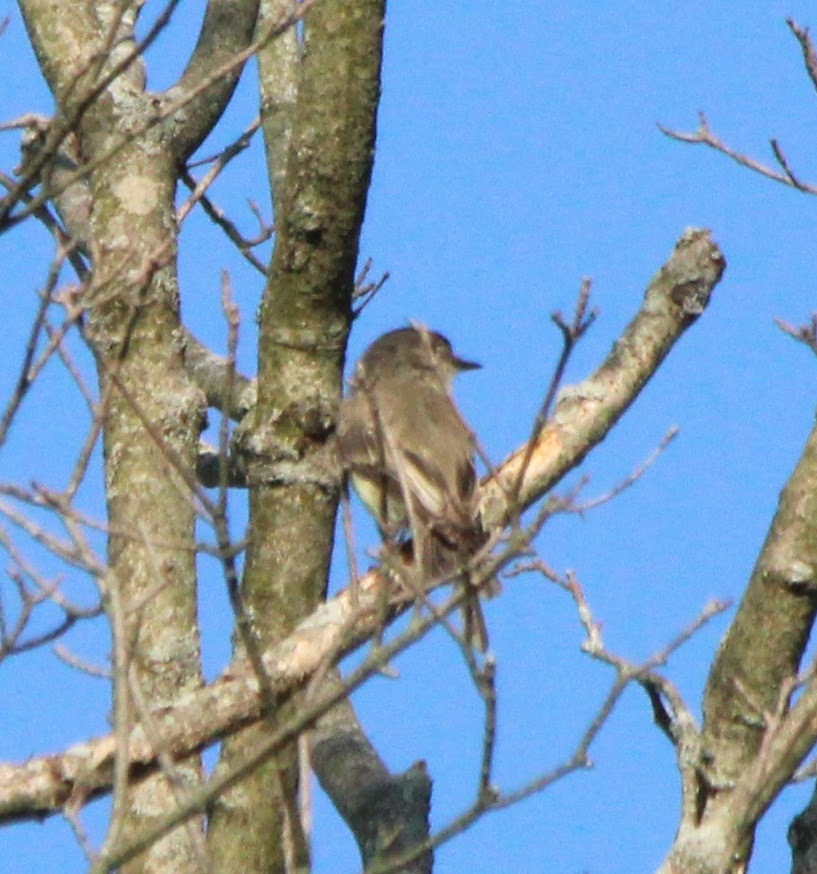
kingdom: Animalia
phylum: Chordata
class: Aves
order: Passeriformes
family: Tyrannidae
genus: Sayornis
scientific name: Sayornis phoebe
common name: Eastern phoebe
